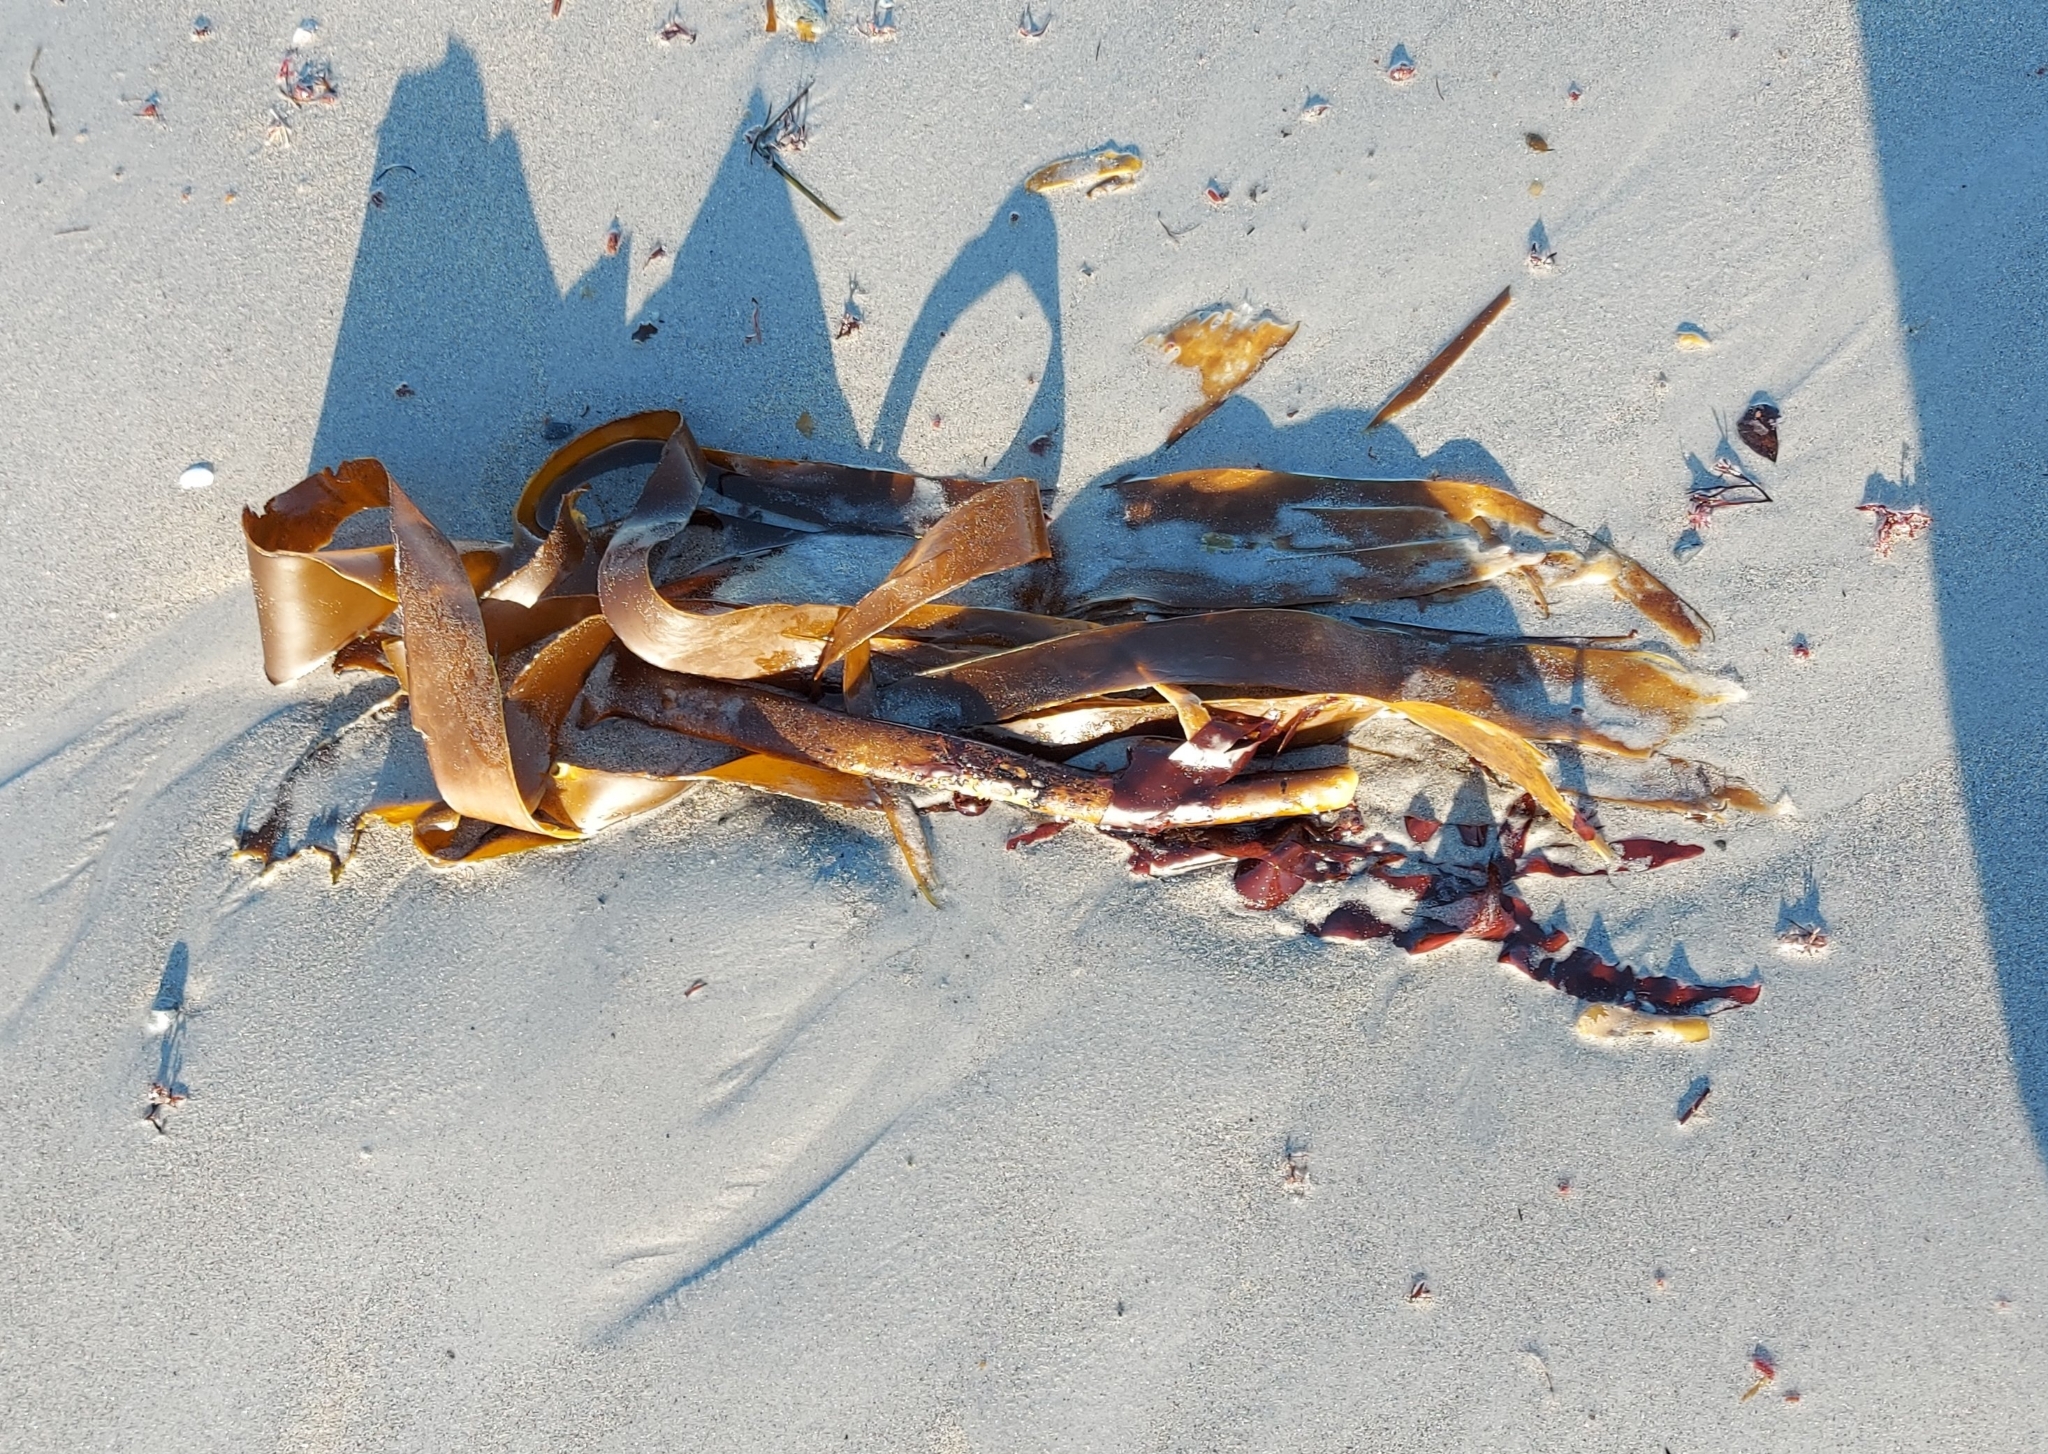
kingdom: Chromista
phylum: Ochrophyta
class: Phaeophyceae
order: Laminariales
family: Laminariaceae
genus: Laminaria
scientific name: Laminaria digitata
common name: Oarweed
